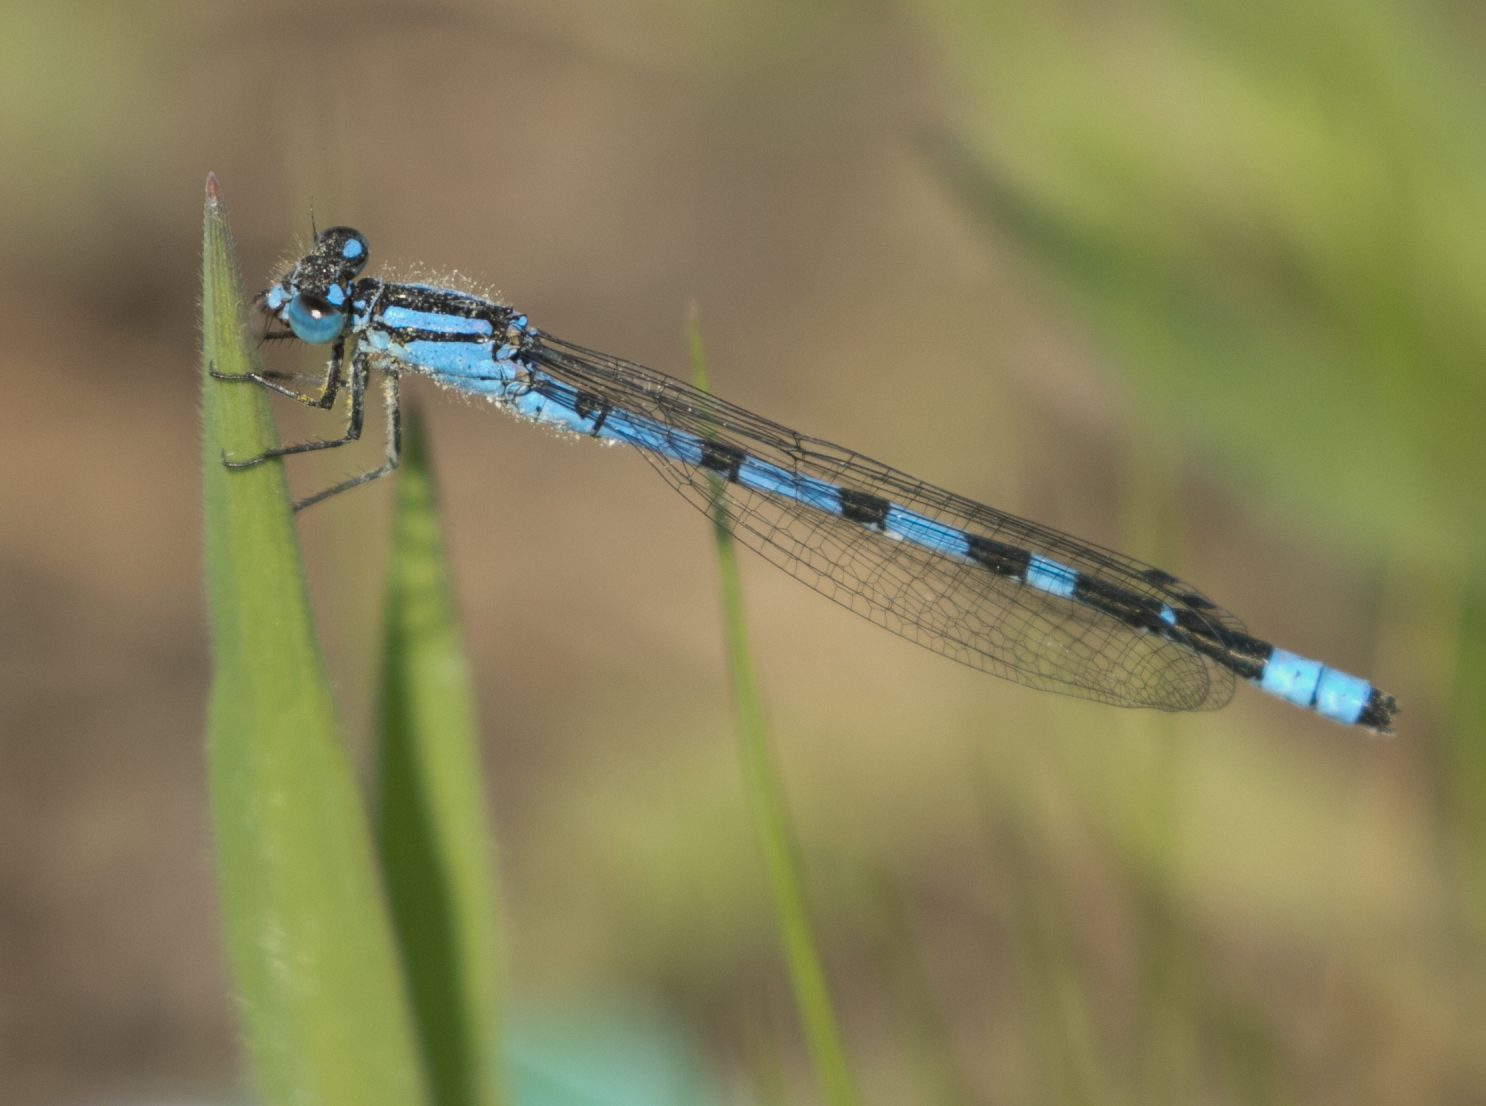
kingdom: Animalia
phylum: Arthropoda
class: Insecta
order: Odonata
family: Coenagrionidae
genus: Enallagma
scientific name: Enallagma cyathigerum
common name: Common blue damselfly
